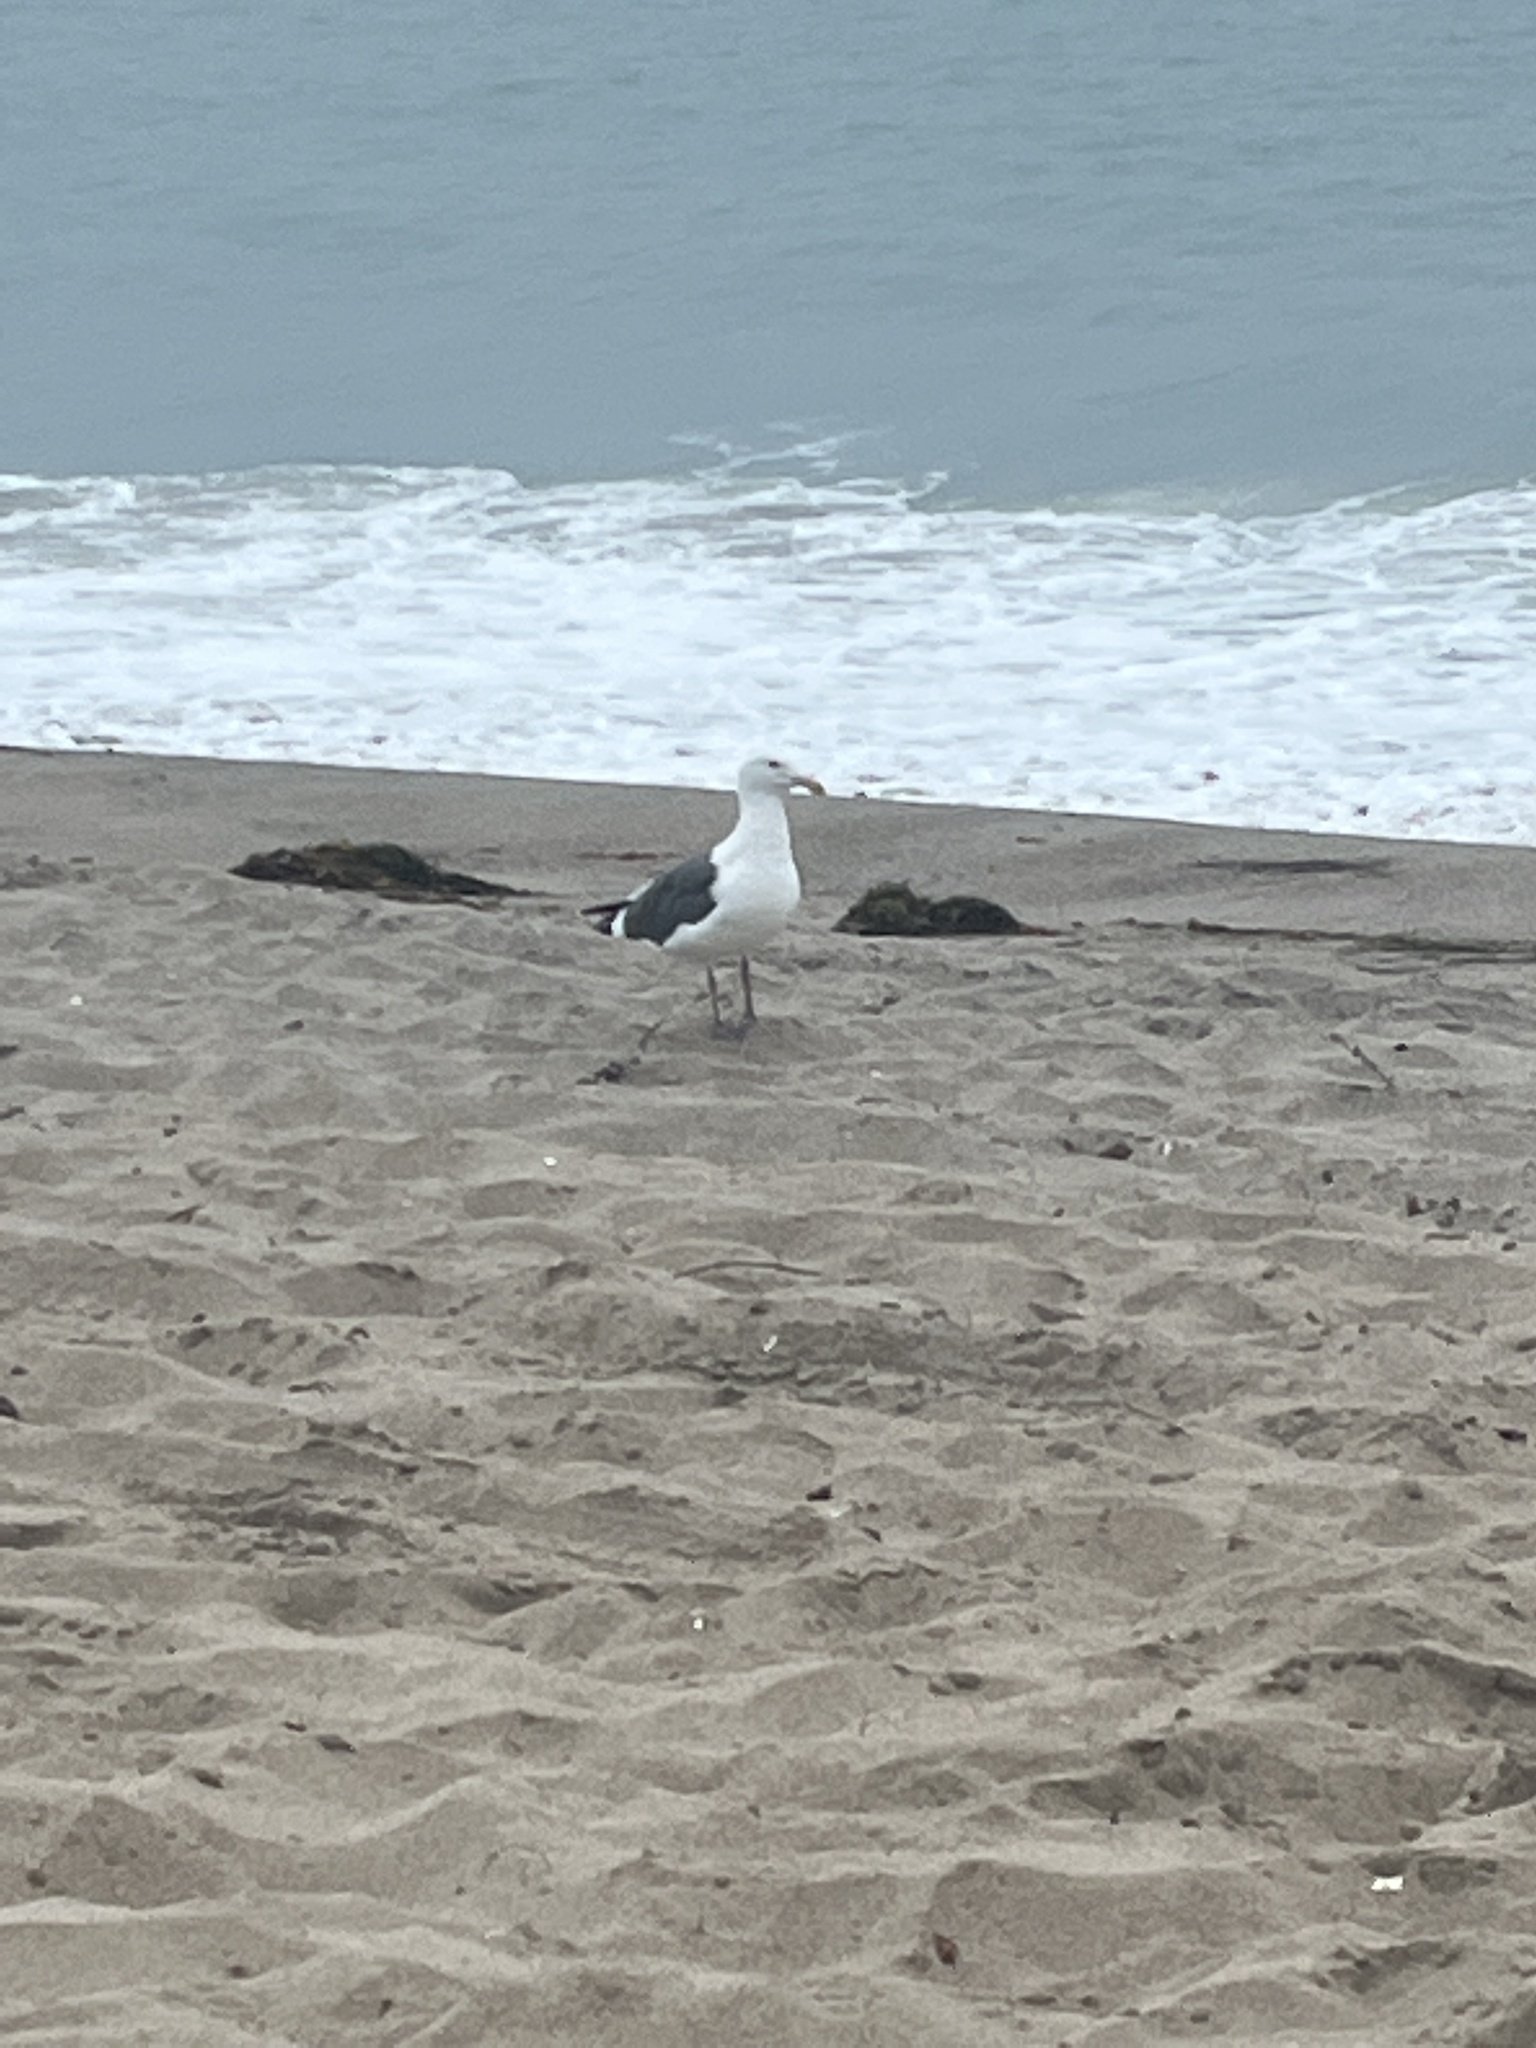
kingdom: Animalia
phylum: Chordata
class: Aves
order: Charadriiformes
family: Laridae
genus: Larus
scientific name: Larus occidentalis
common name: Western gull
